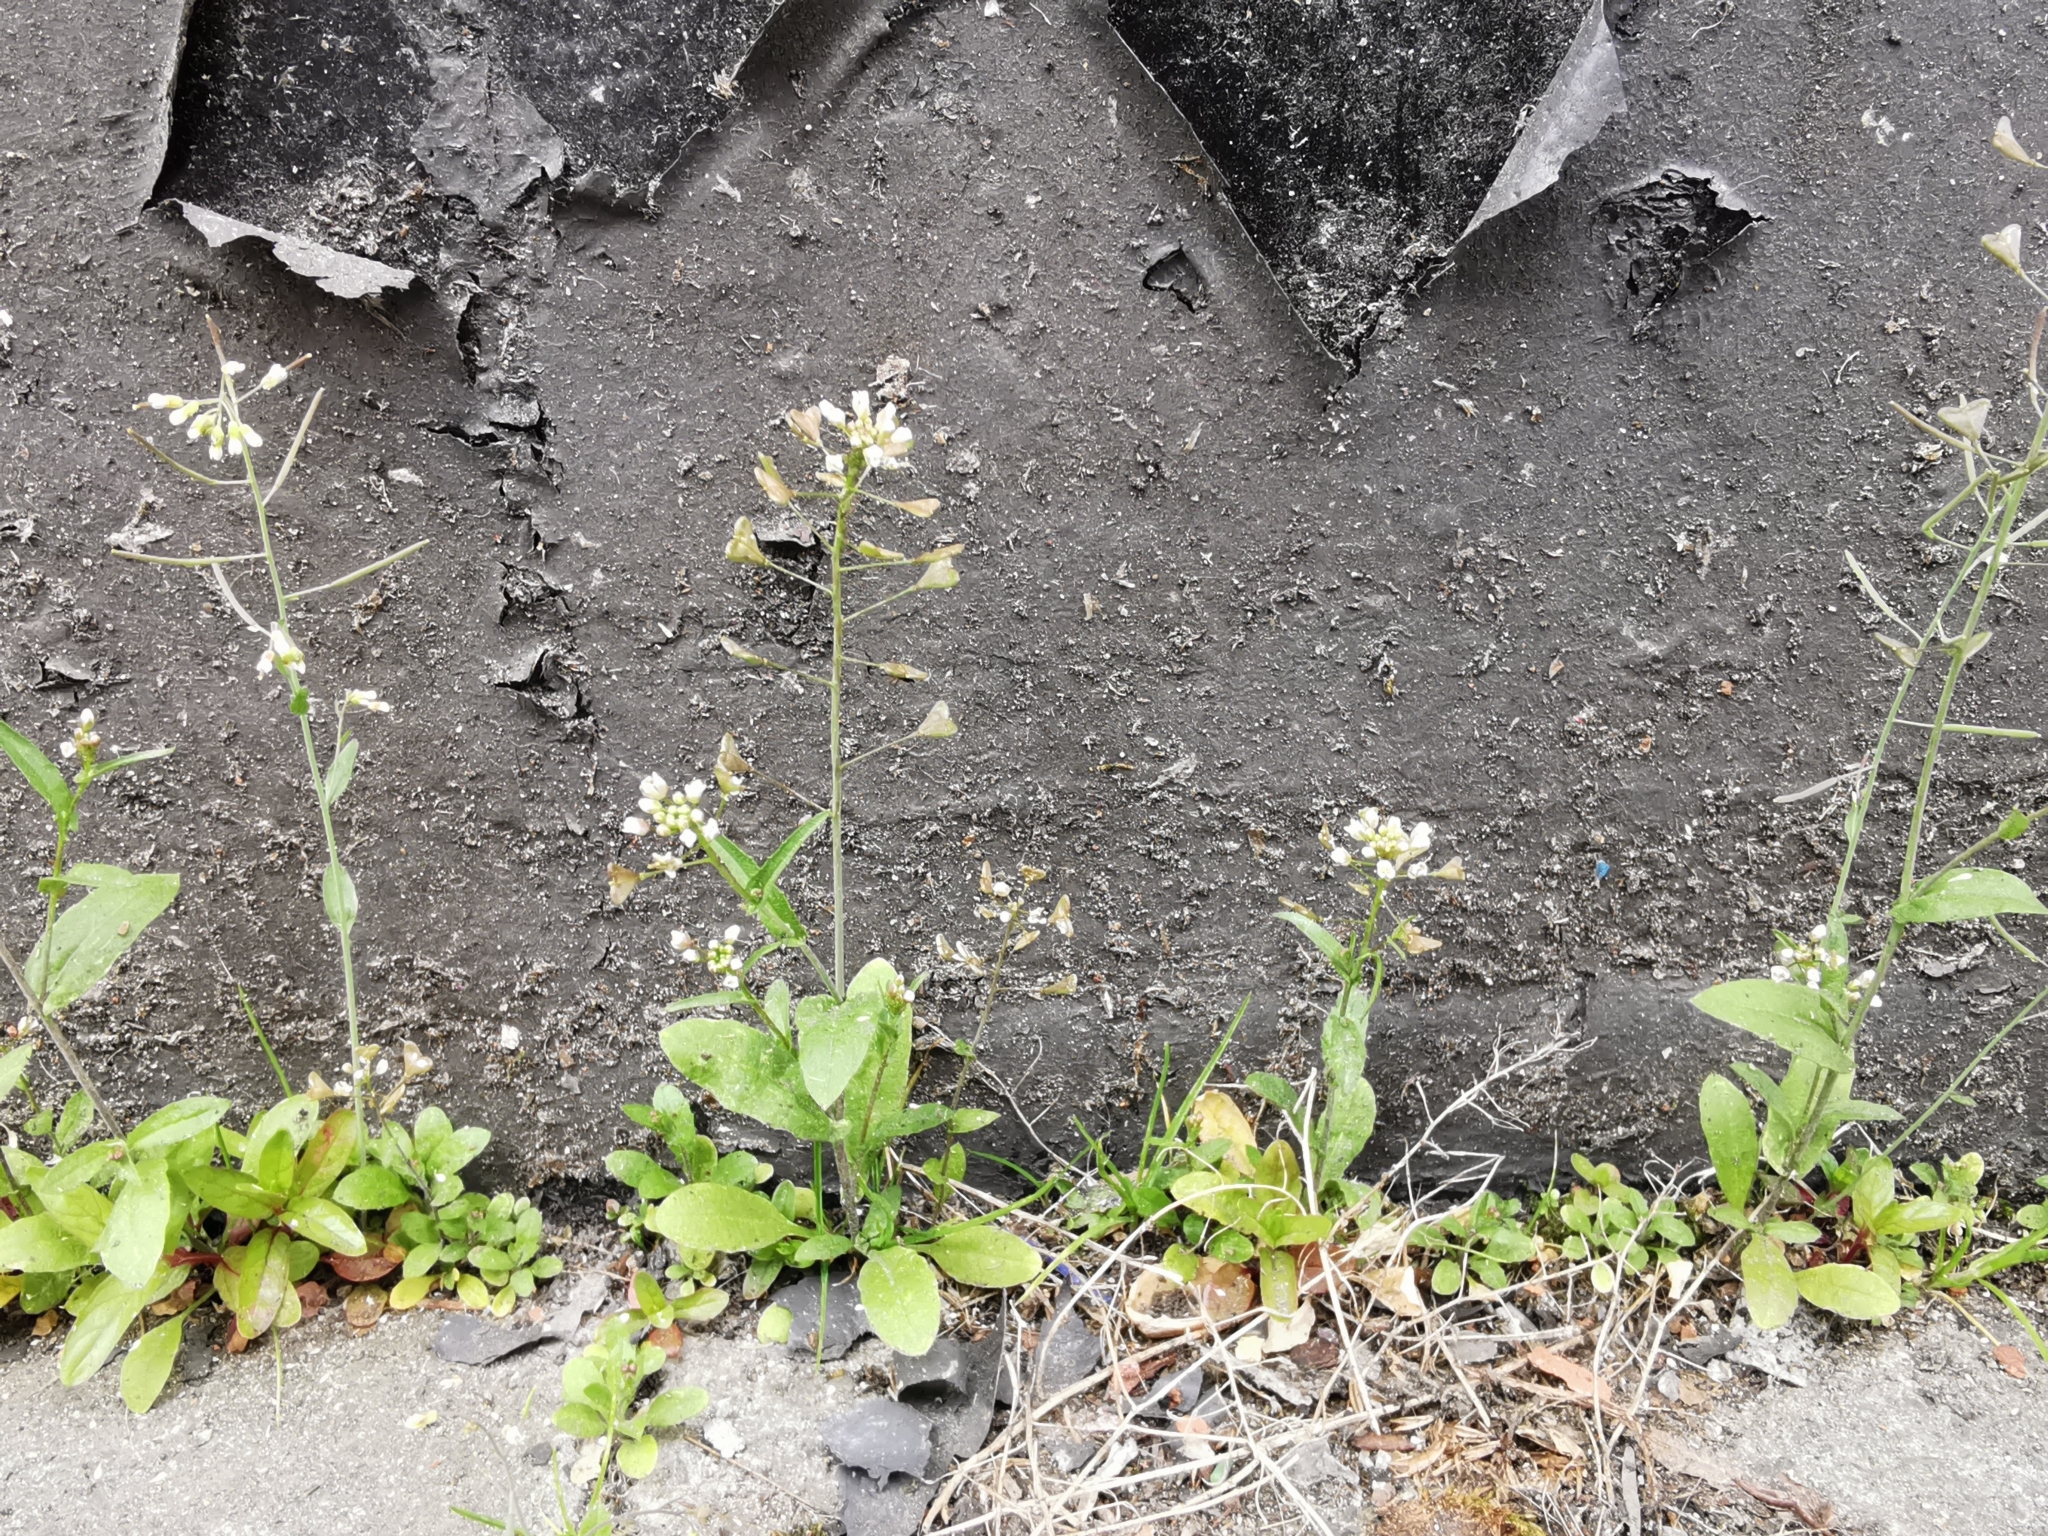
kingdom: Plantae
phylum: Tracheophyta
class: Magnoliopsida
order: Brassicales
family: Brassicaceae
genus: Capsella
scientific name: Capsella bursa-pastoris
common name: Shepherd's purse
